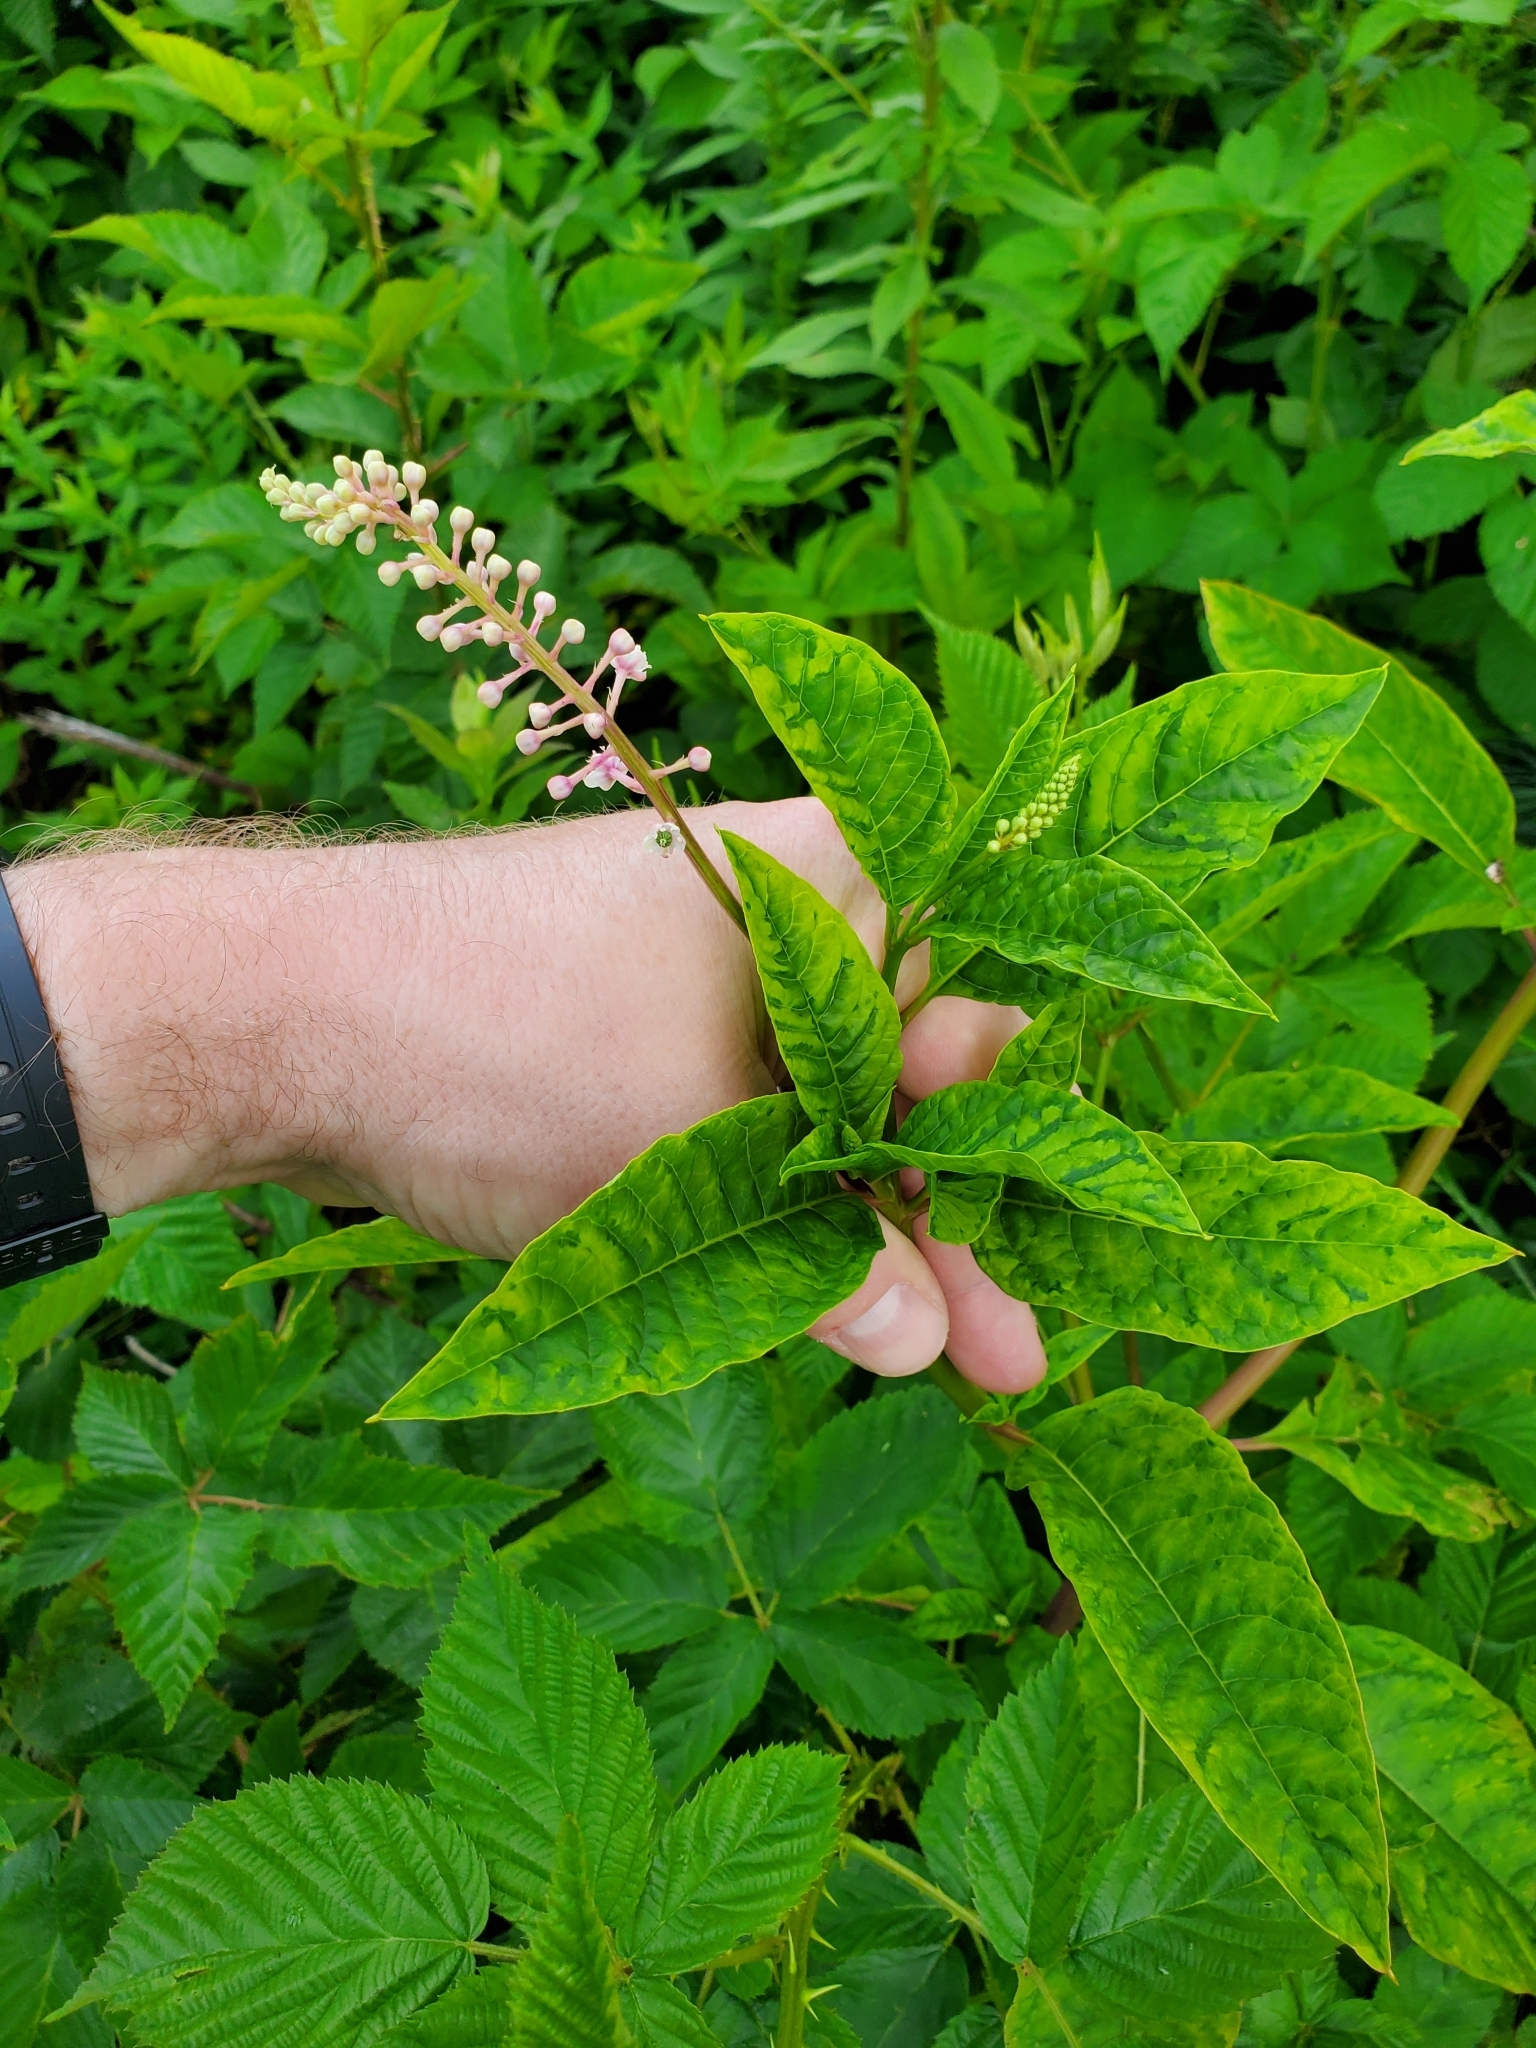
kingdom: Plantae
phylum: Tracheophyta
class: Magnoliopsida
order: Caryophyllales
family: Phytolaccaceae
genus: Phytolacca
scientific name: Phytolacca americana
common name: American pokeweed
